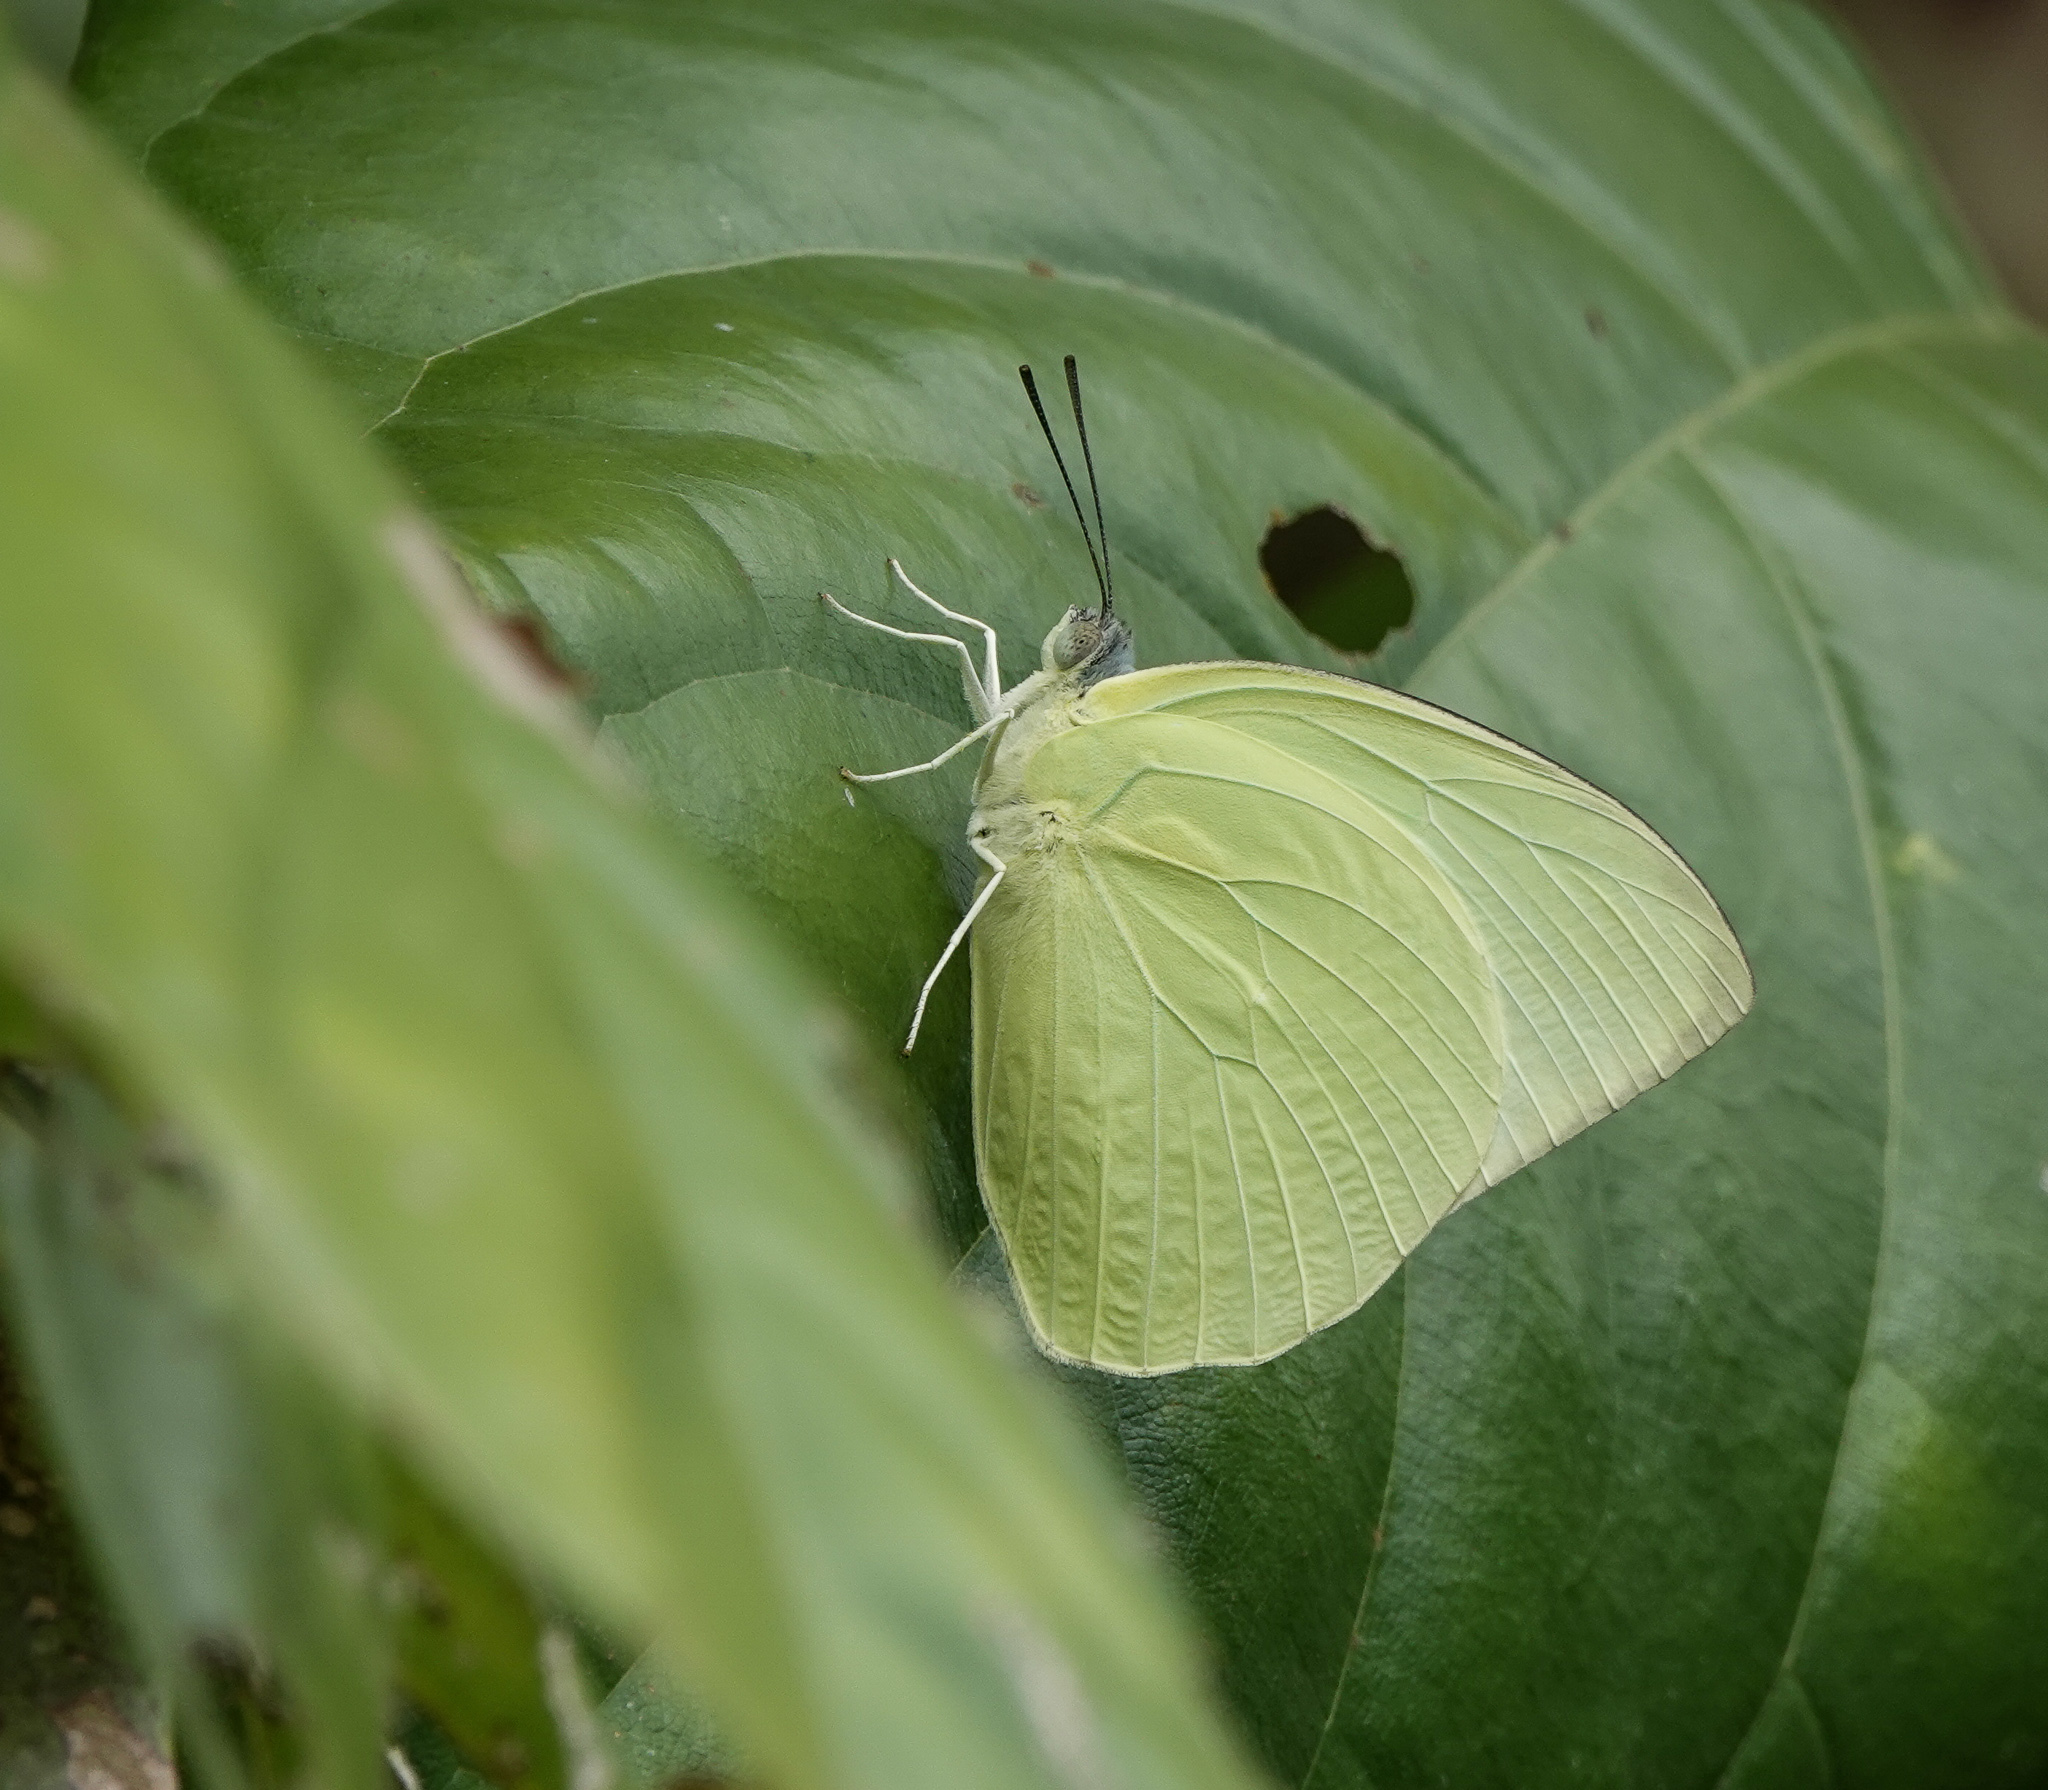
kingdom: Animalia
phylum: Arthropoda
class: Insecta
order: Lepidoptera
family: Pieridae
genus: Catopsilia
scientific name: Catopsilia pomona
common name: Common emigrant
